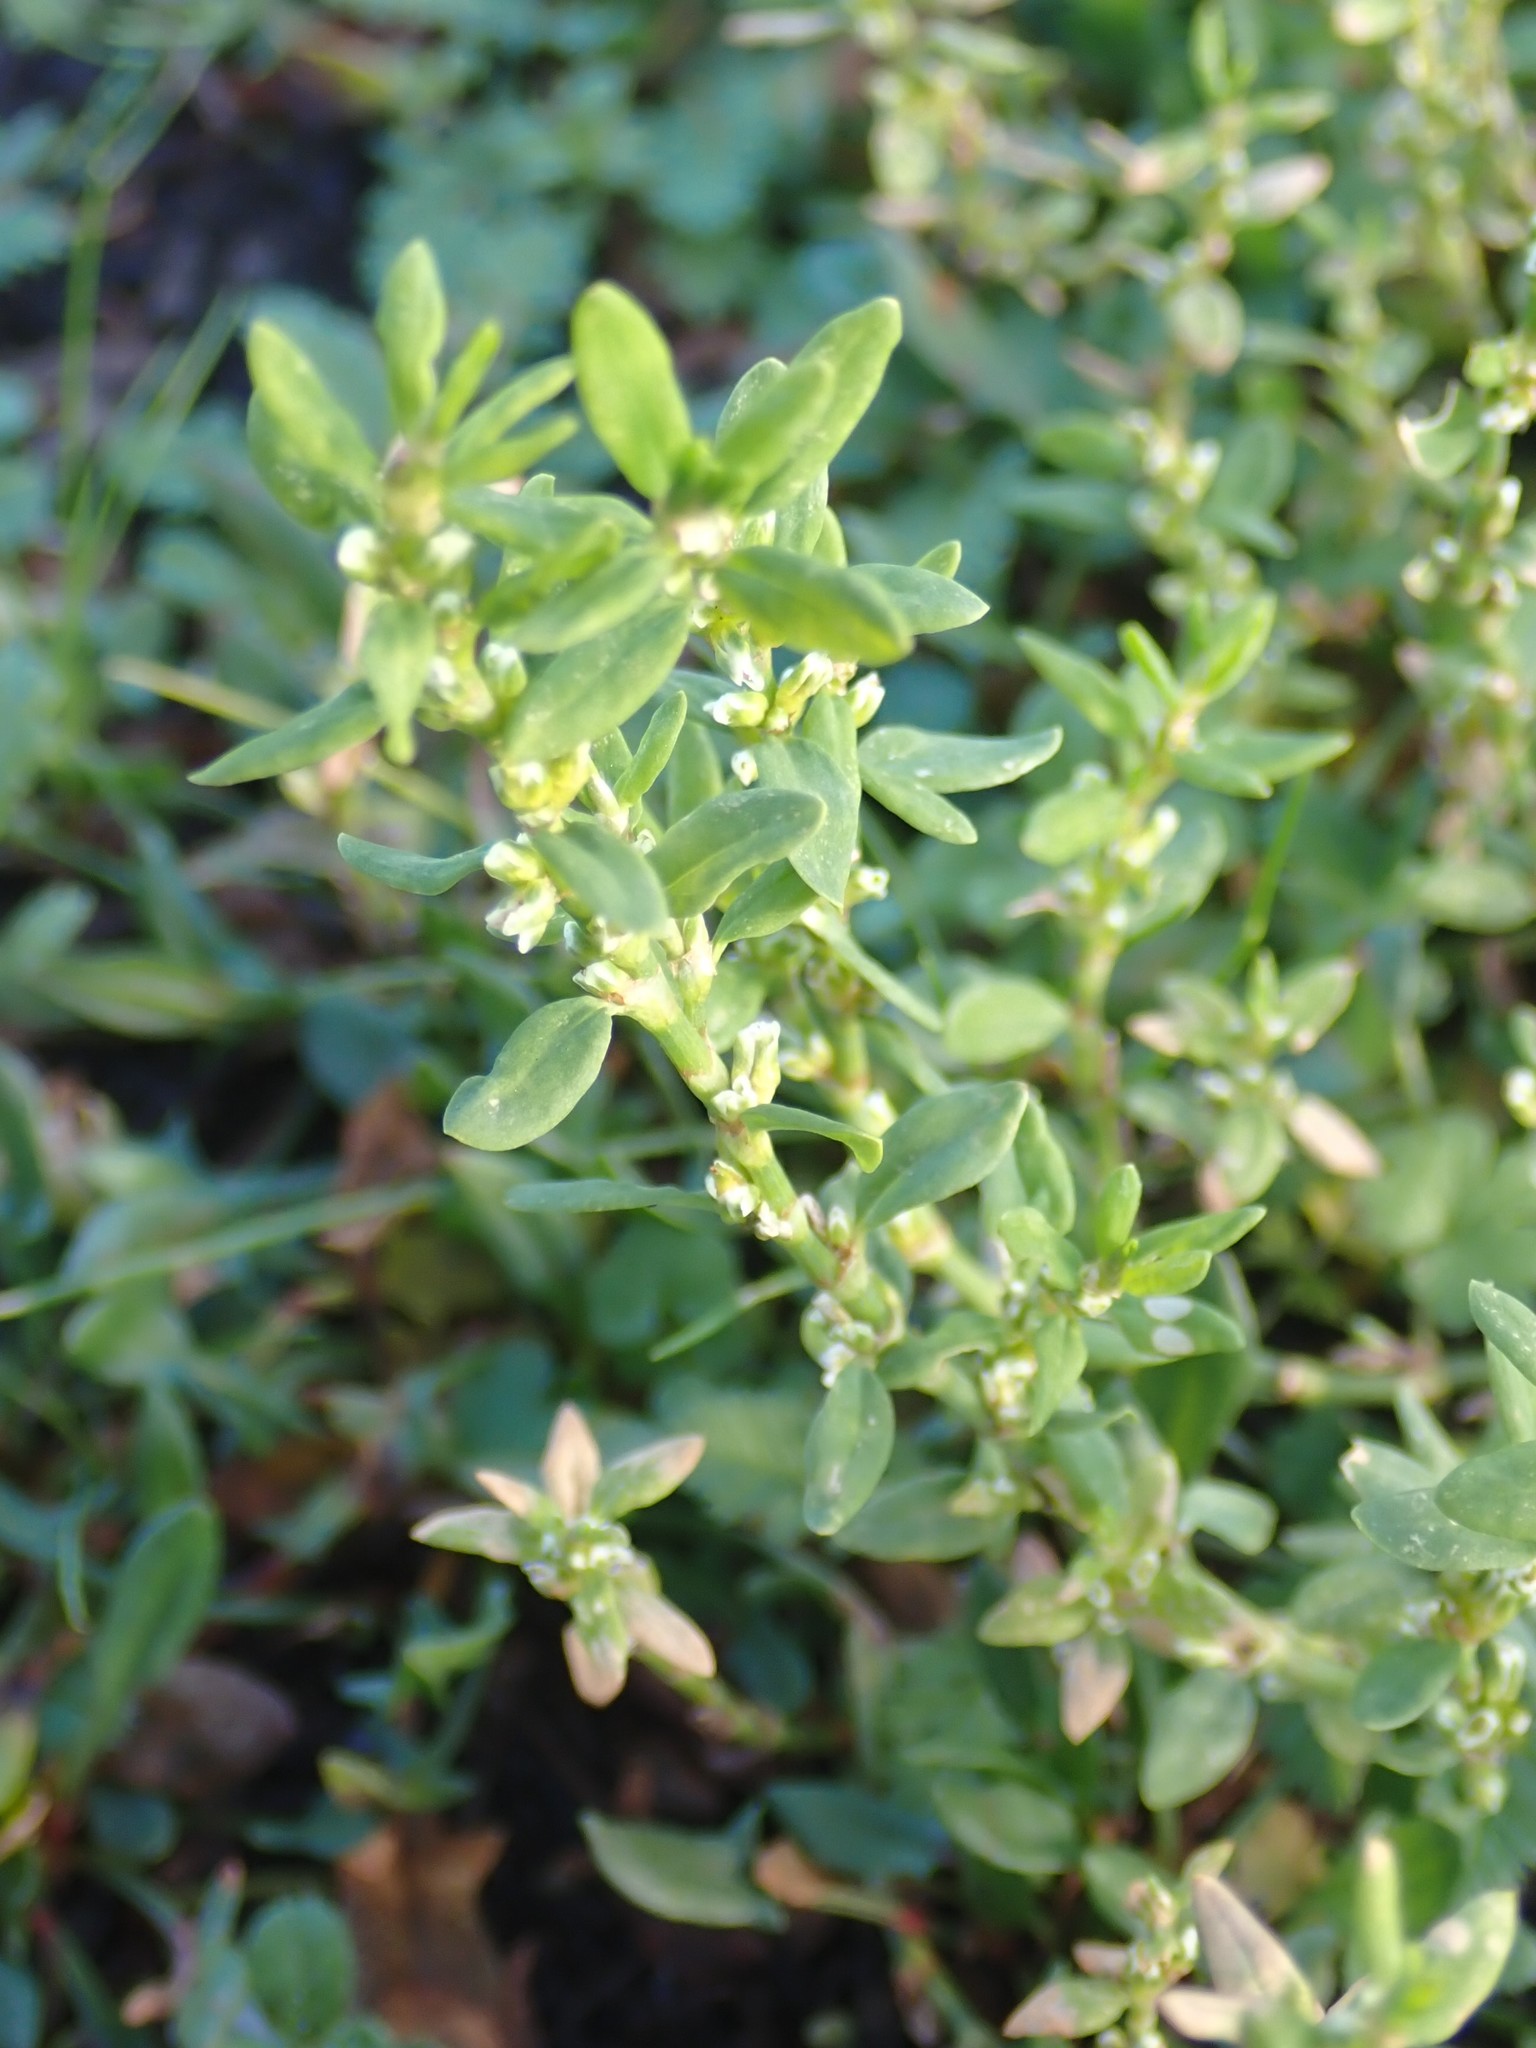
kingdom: Plantae
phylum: Tracheophyta
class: Magnoliopsida
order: Caryophyllales
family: Polygonaceae
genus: Polygonum
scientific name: Polygonum aviculare
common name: Prostrate knotweed
